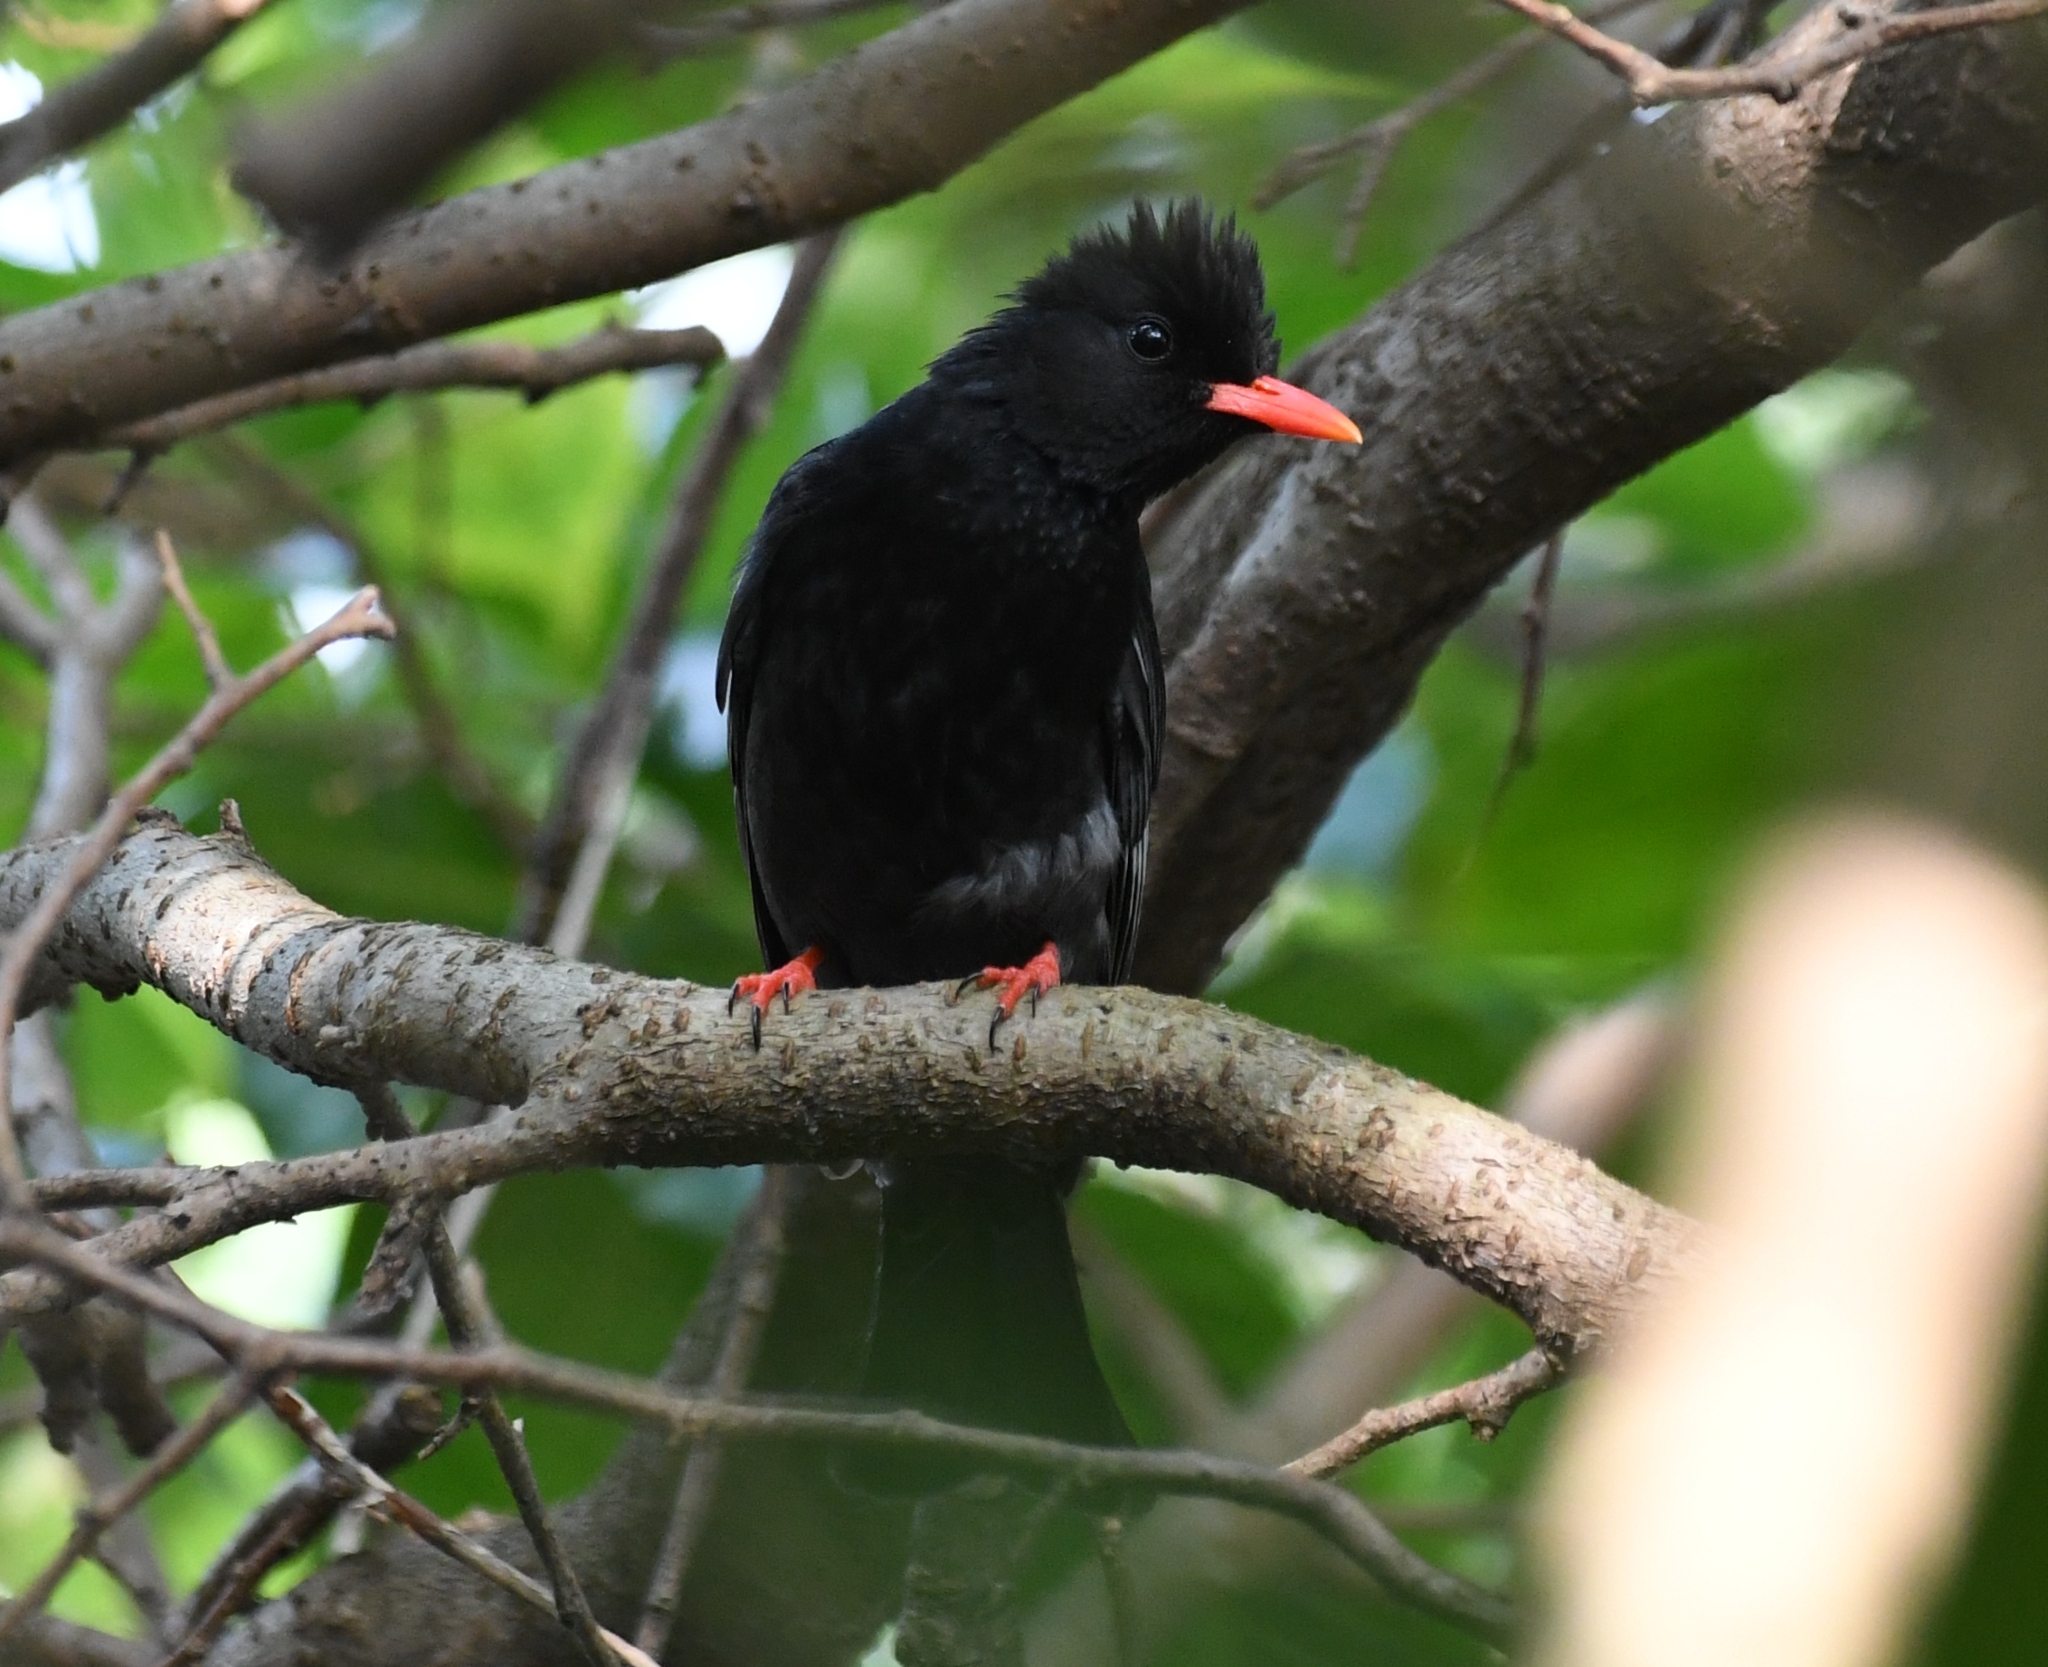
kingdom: Animalia
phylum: Chordata
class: Aves
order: Passeriformes
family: Pycnonotidae
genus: Hypsipetes
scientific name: Hypsipetes leucocephalus
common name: Black bulbul
